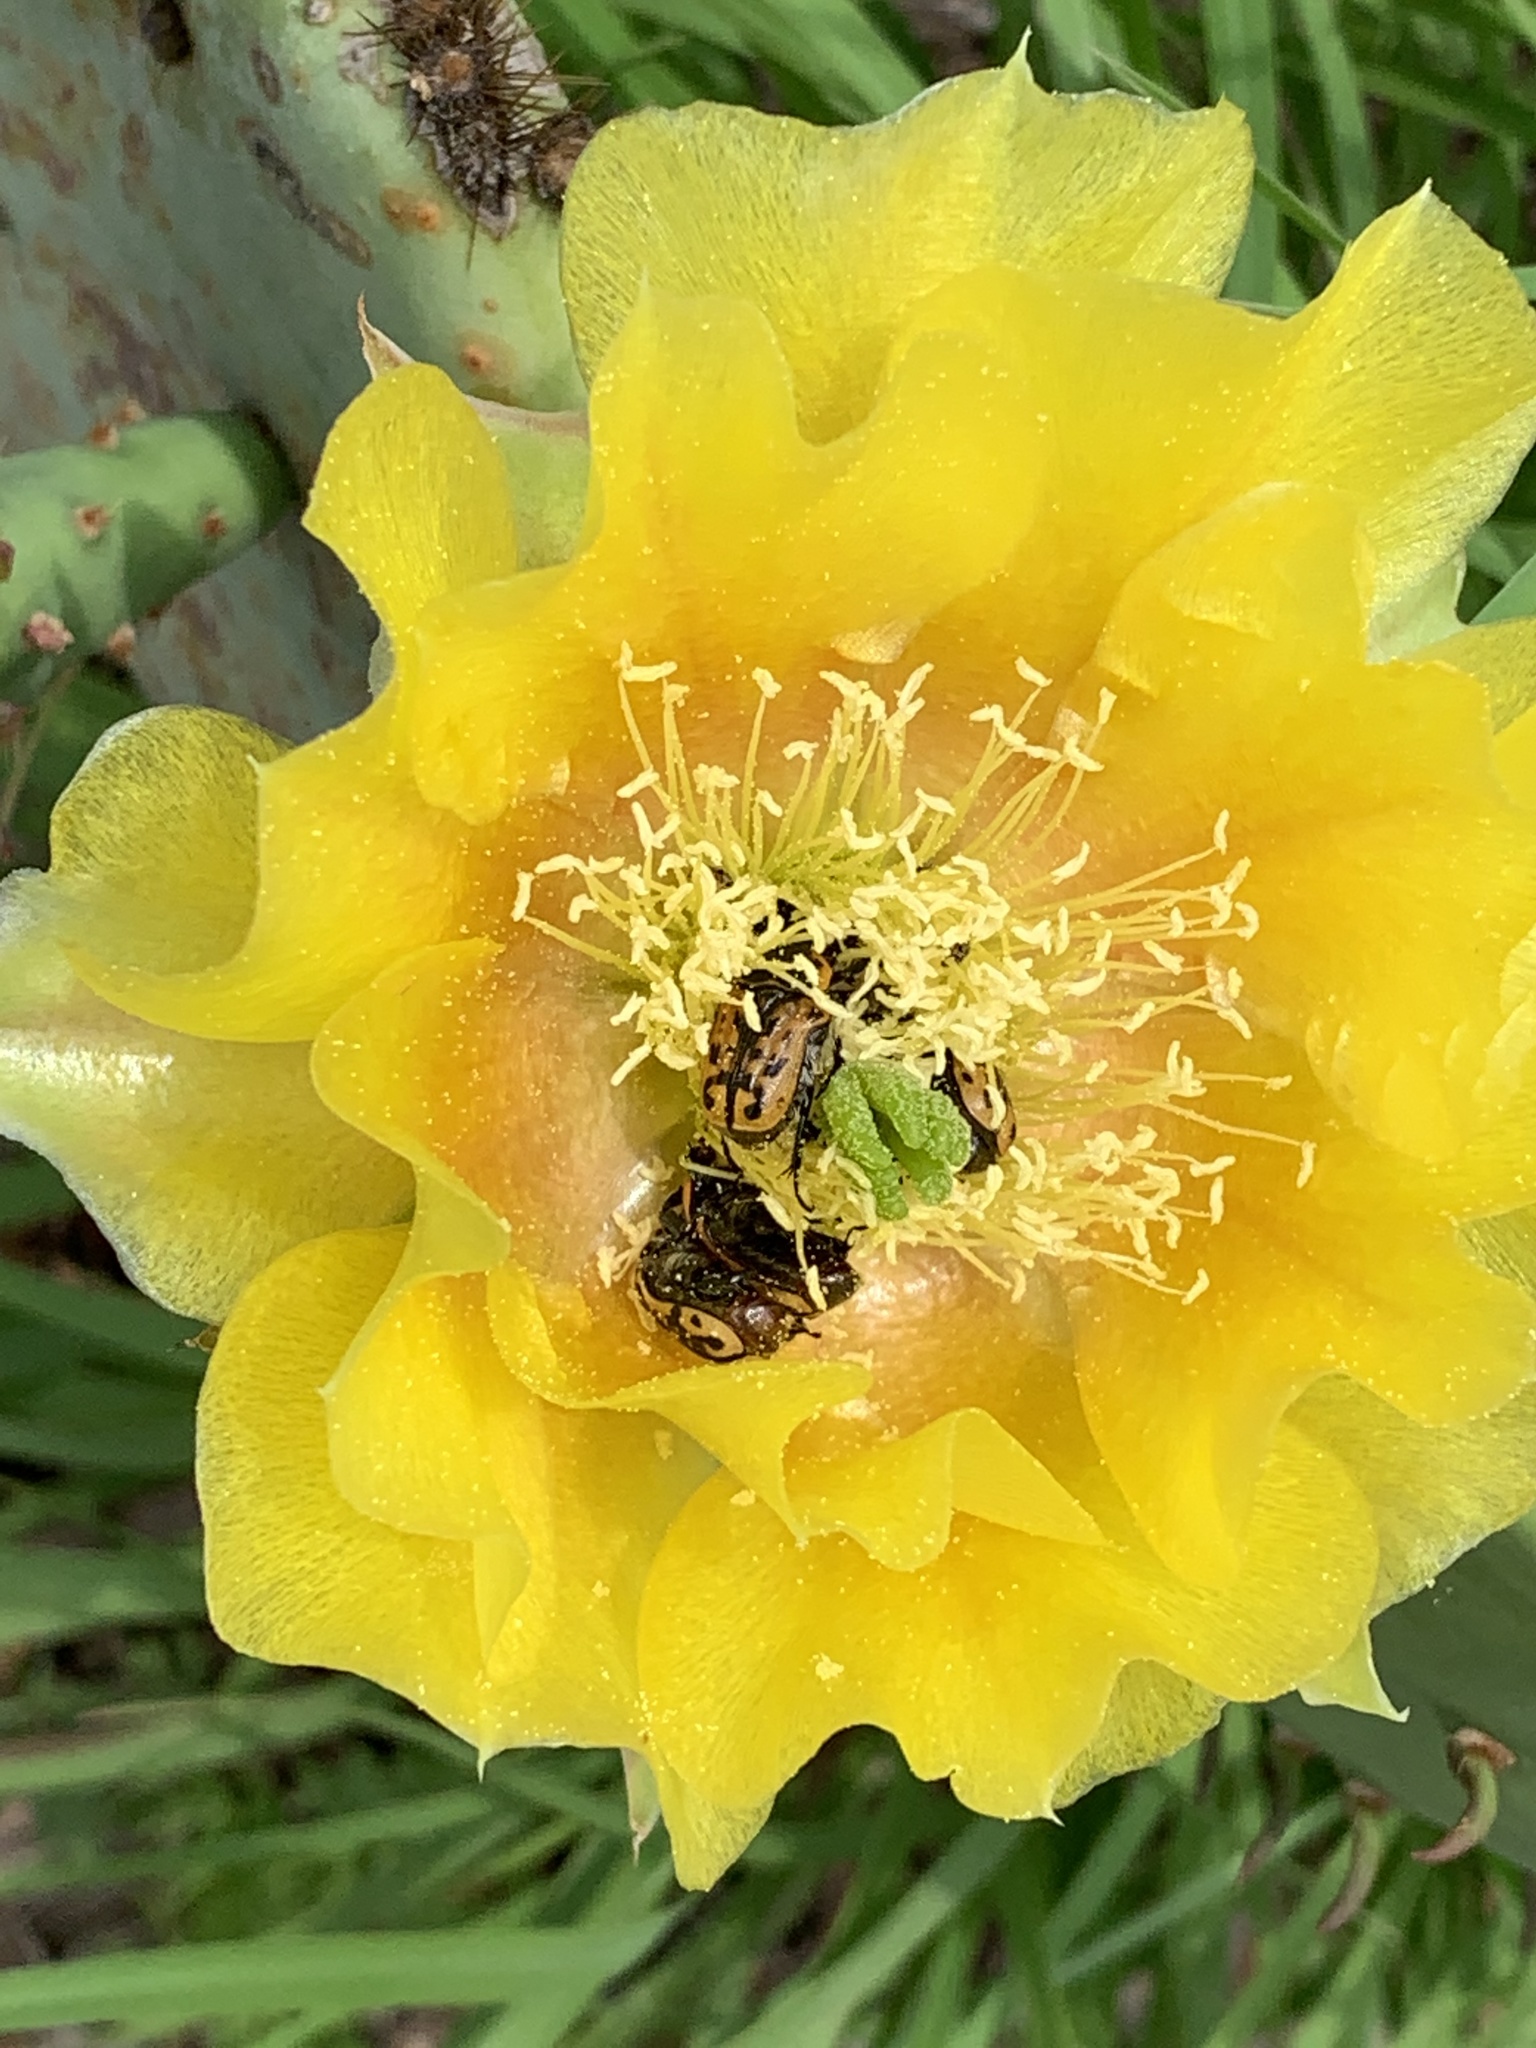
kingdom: Animalia
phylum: Arthropoda
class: Insecta
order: Coleoptera
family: Scarabaeidae
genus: Euphoria
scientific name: Euphoria kernii
